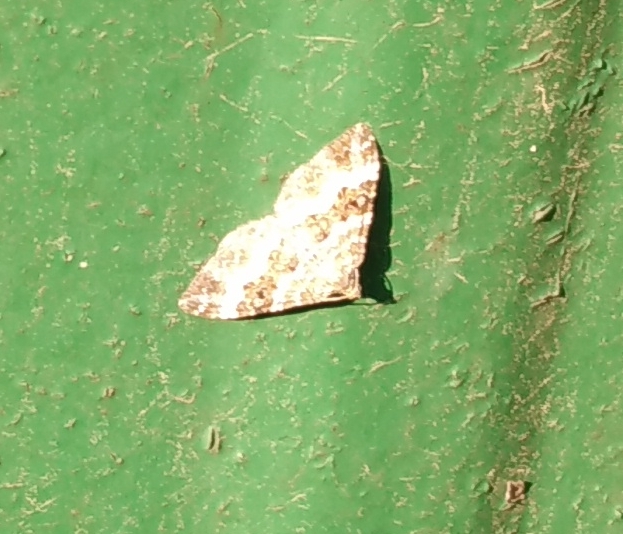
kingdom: Animalia
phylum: Arthropoda
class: Insecta
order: Lepidoptera
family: Geometridae
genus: Epirrhoe
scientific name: Epirrhoe alternata
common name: Common carpet
